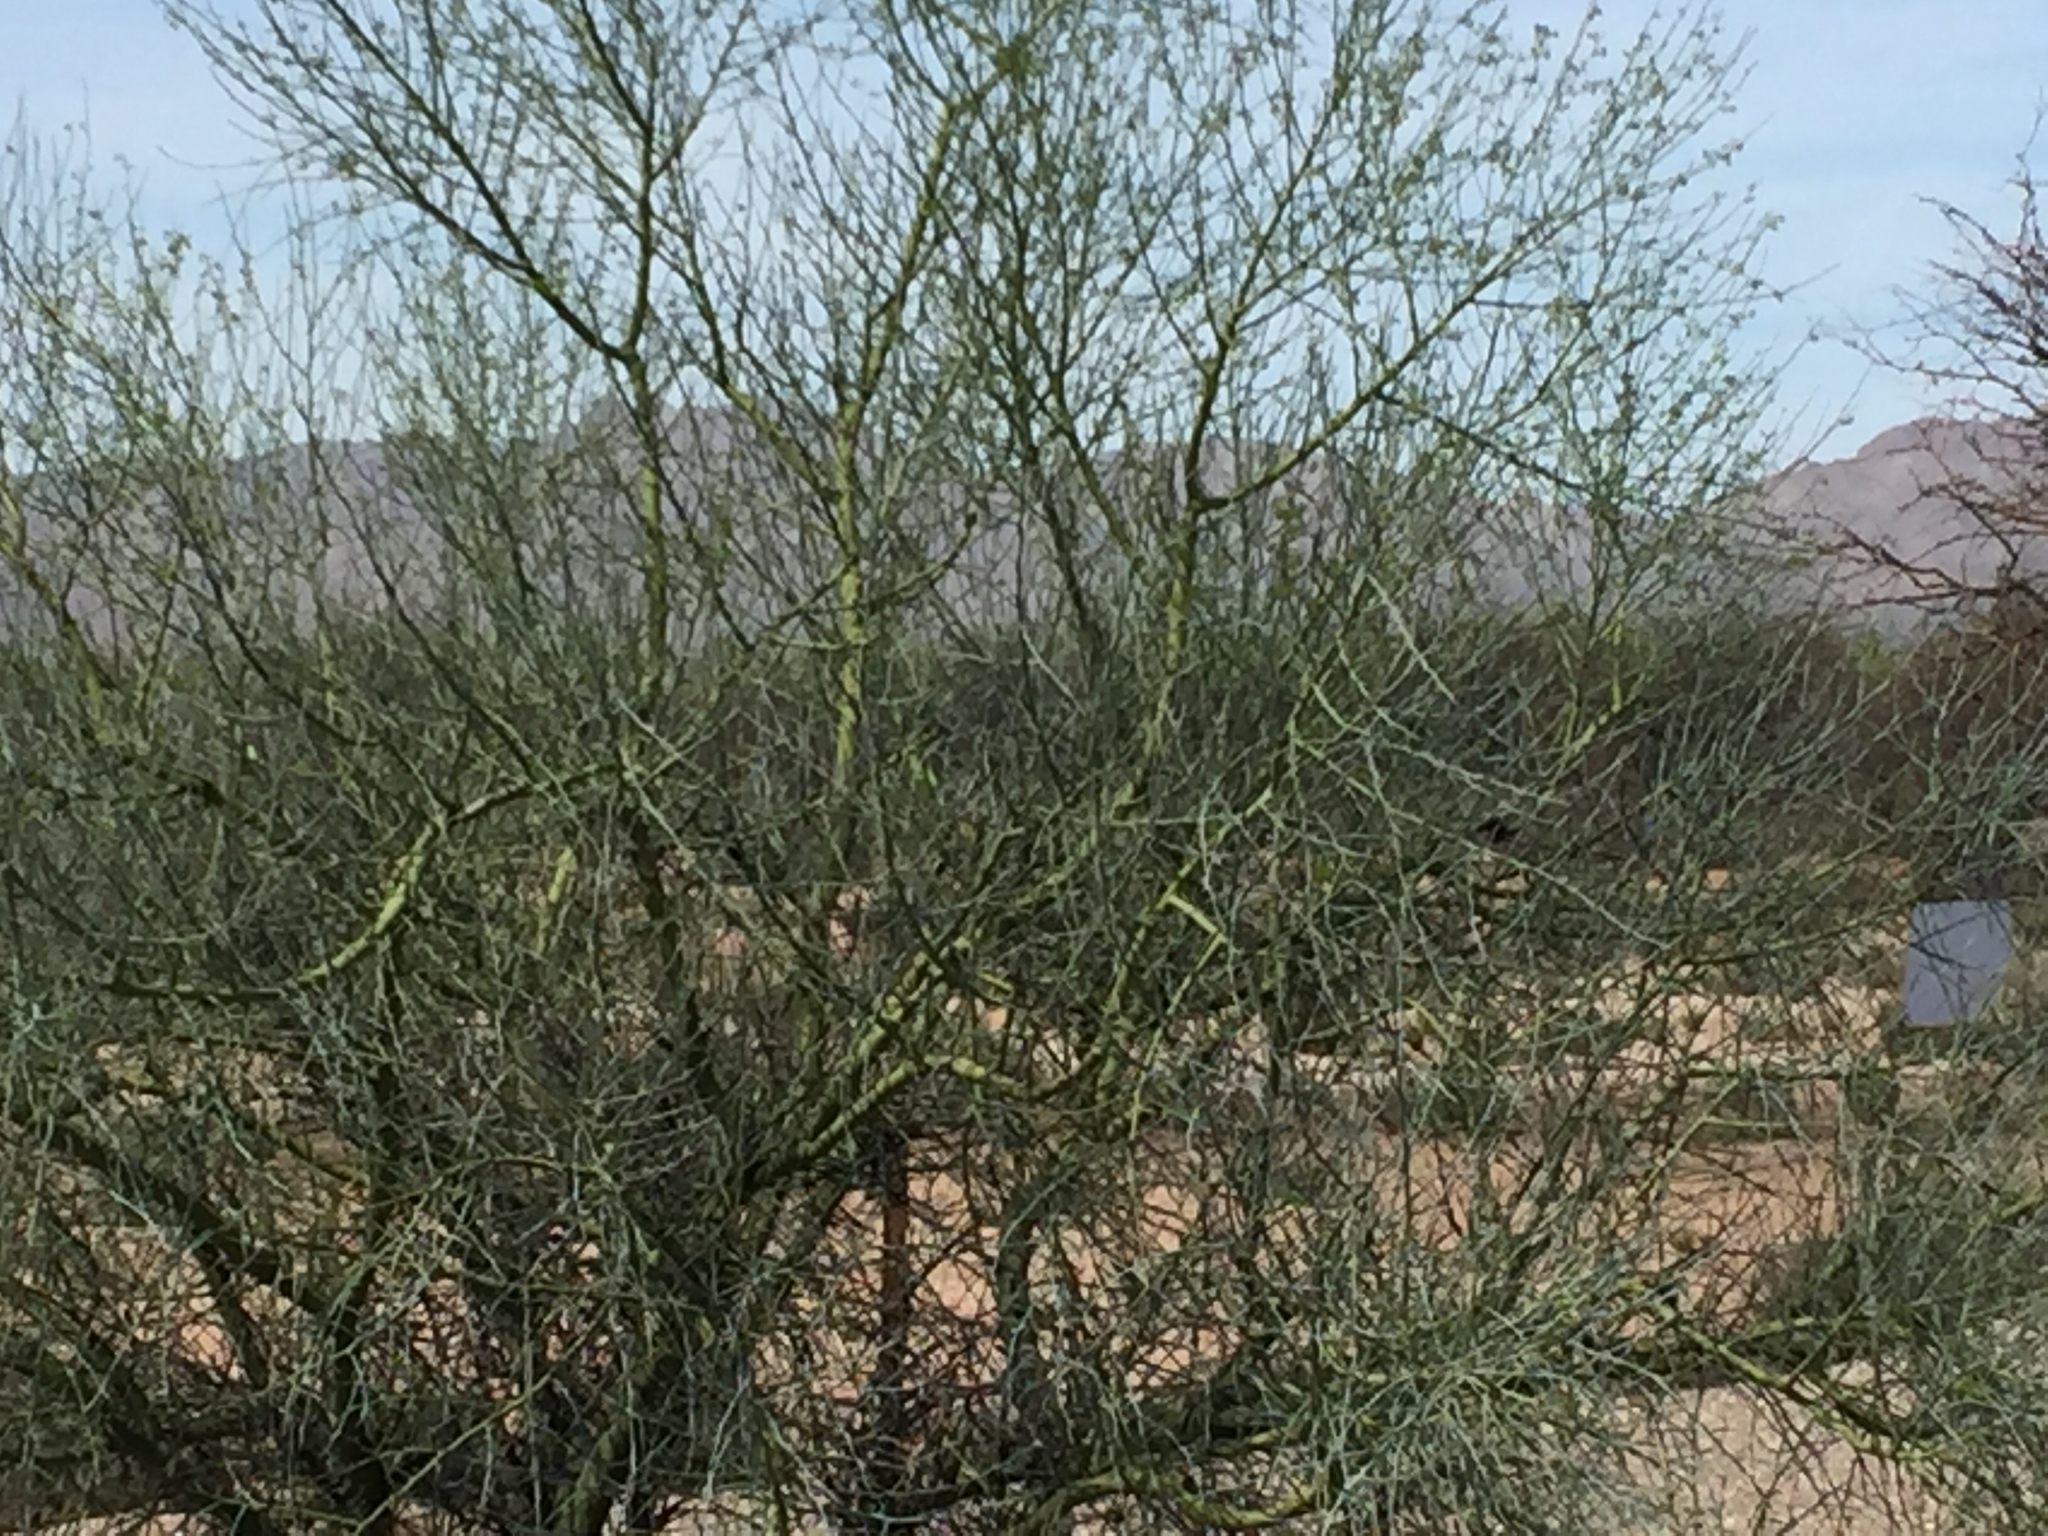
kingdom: Plantae
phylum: Tracheophyta
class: Magnoliopsida
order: Fabales
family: Fabaceae
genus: Parkinsonia
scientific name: Parkinsonia florida
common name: Blue paloverde
